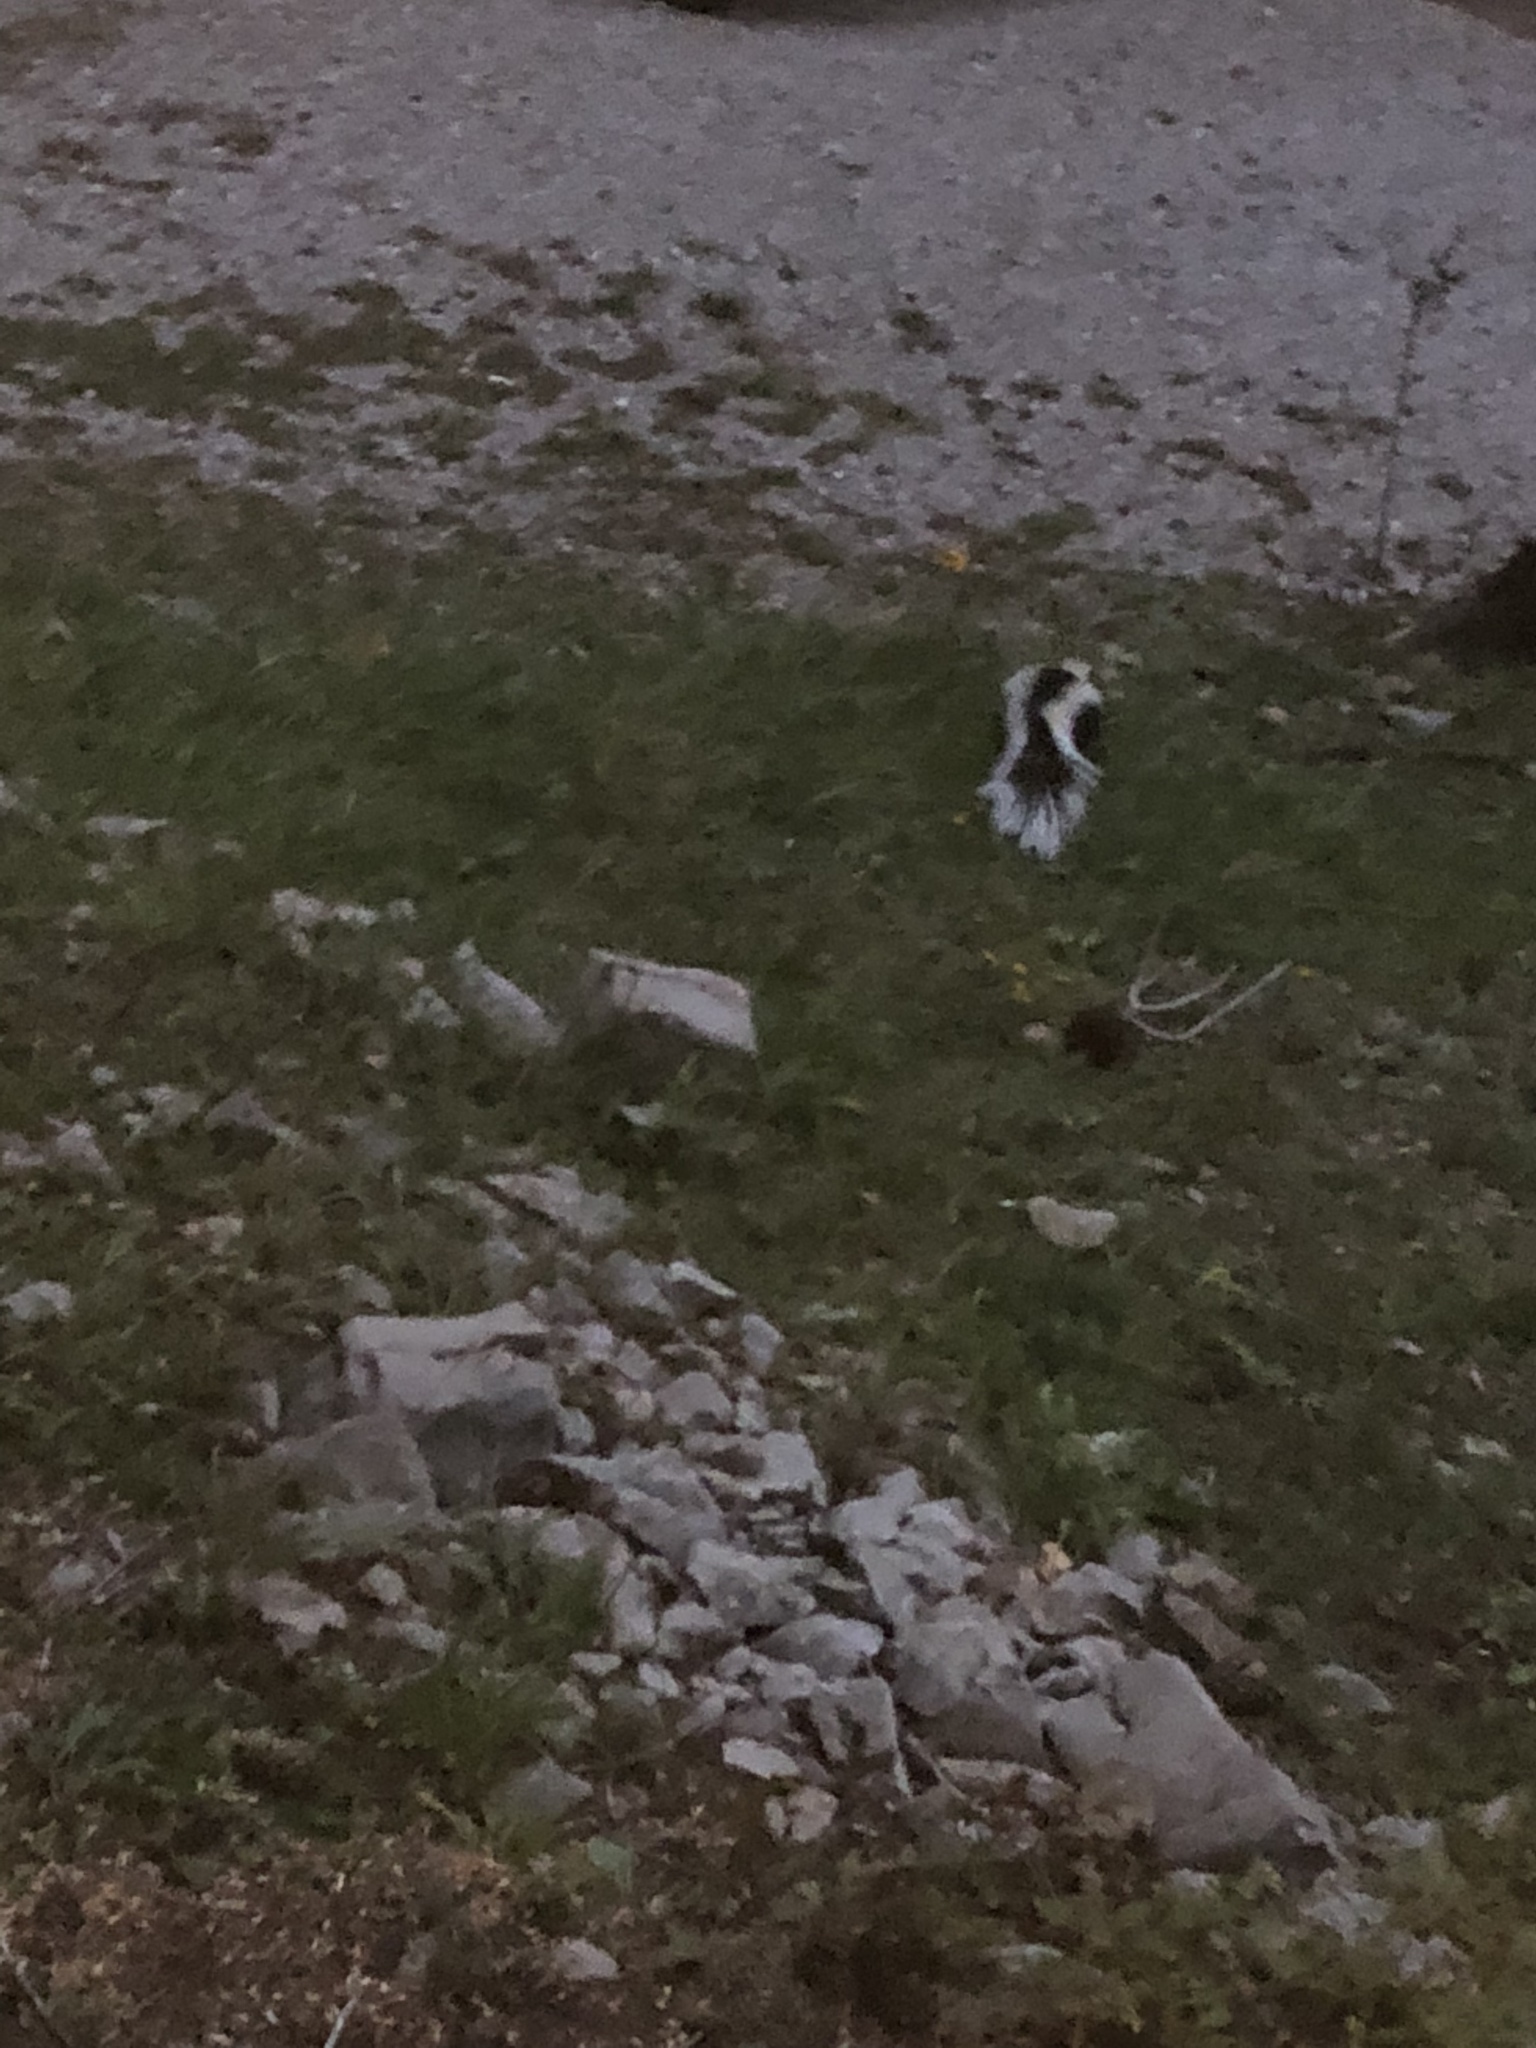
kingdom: Animalia
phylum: Chordata
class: Mammalia
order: Carnivora
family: Mephitidae
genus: Mephitis
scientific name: Mephitis mephitis
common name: Striped skunk
